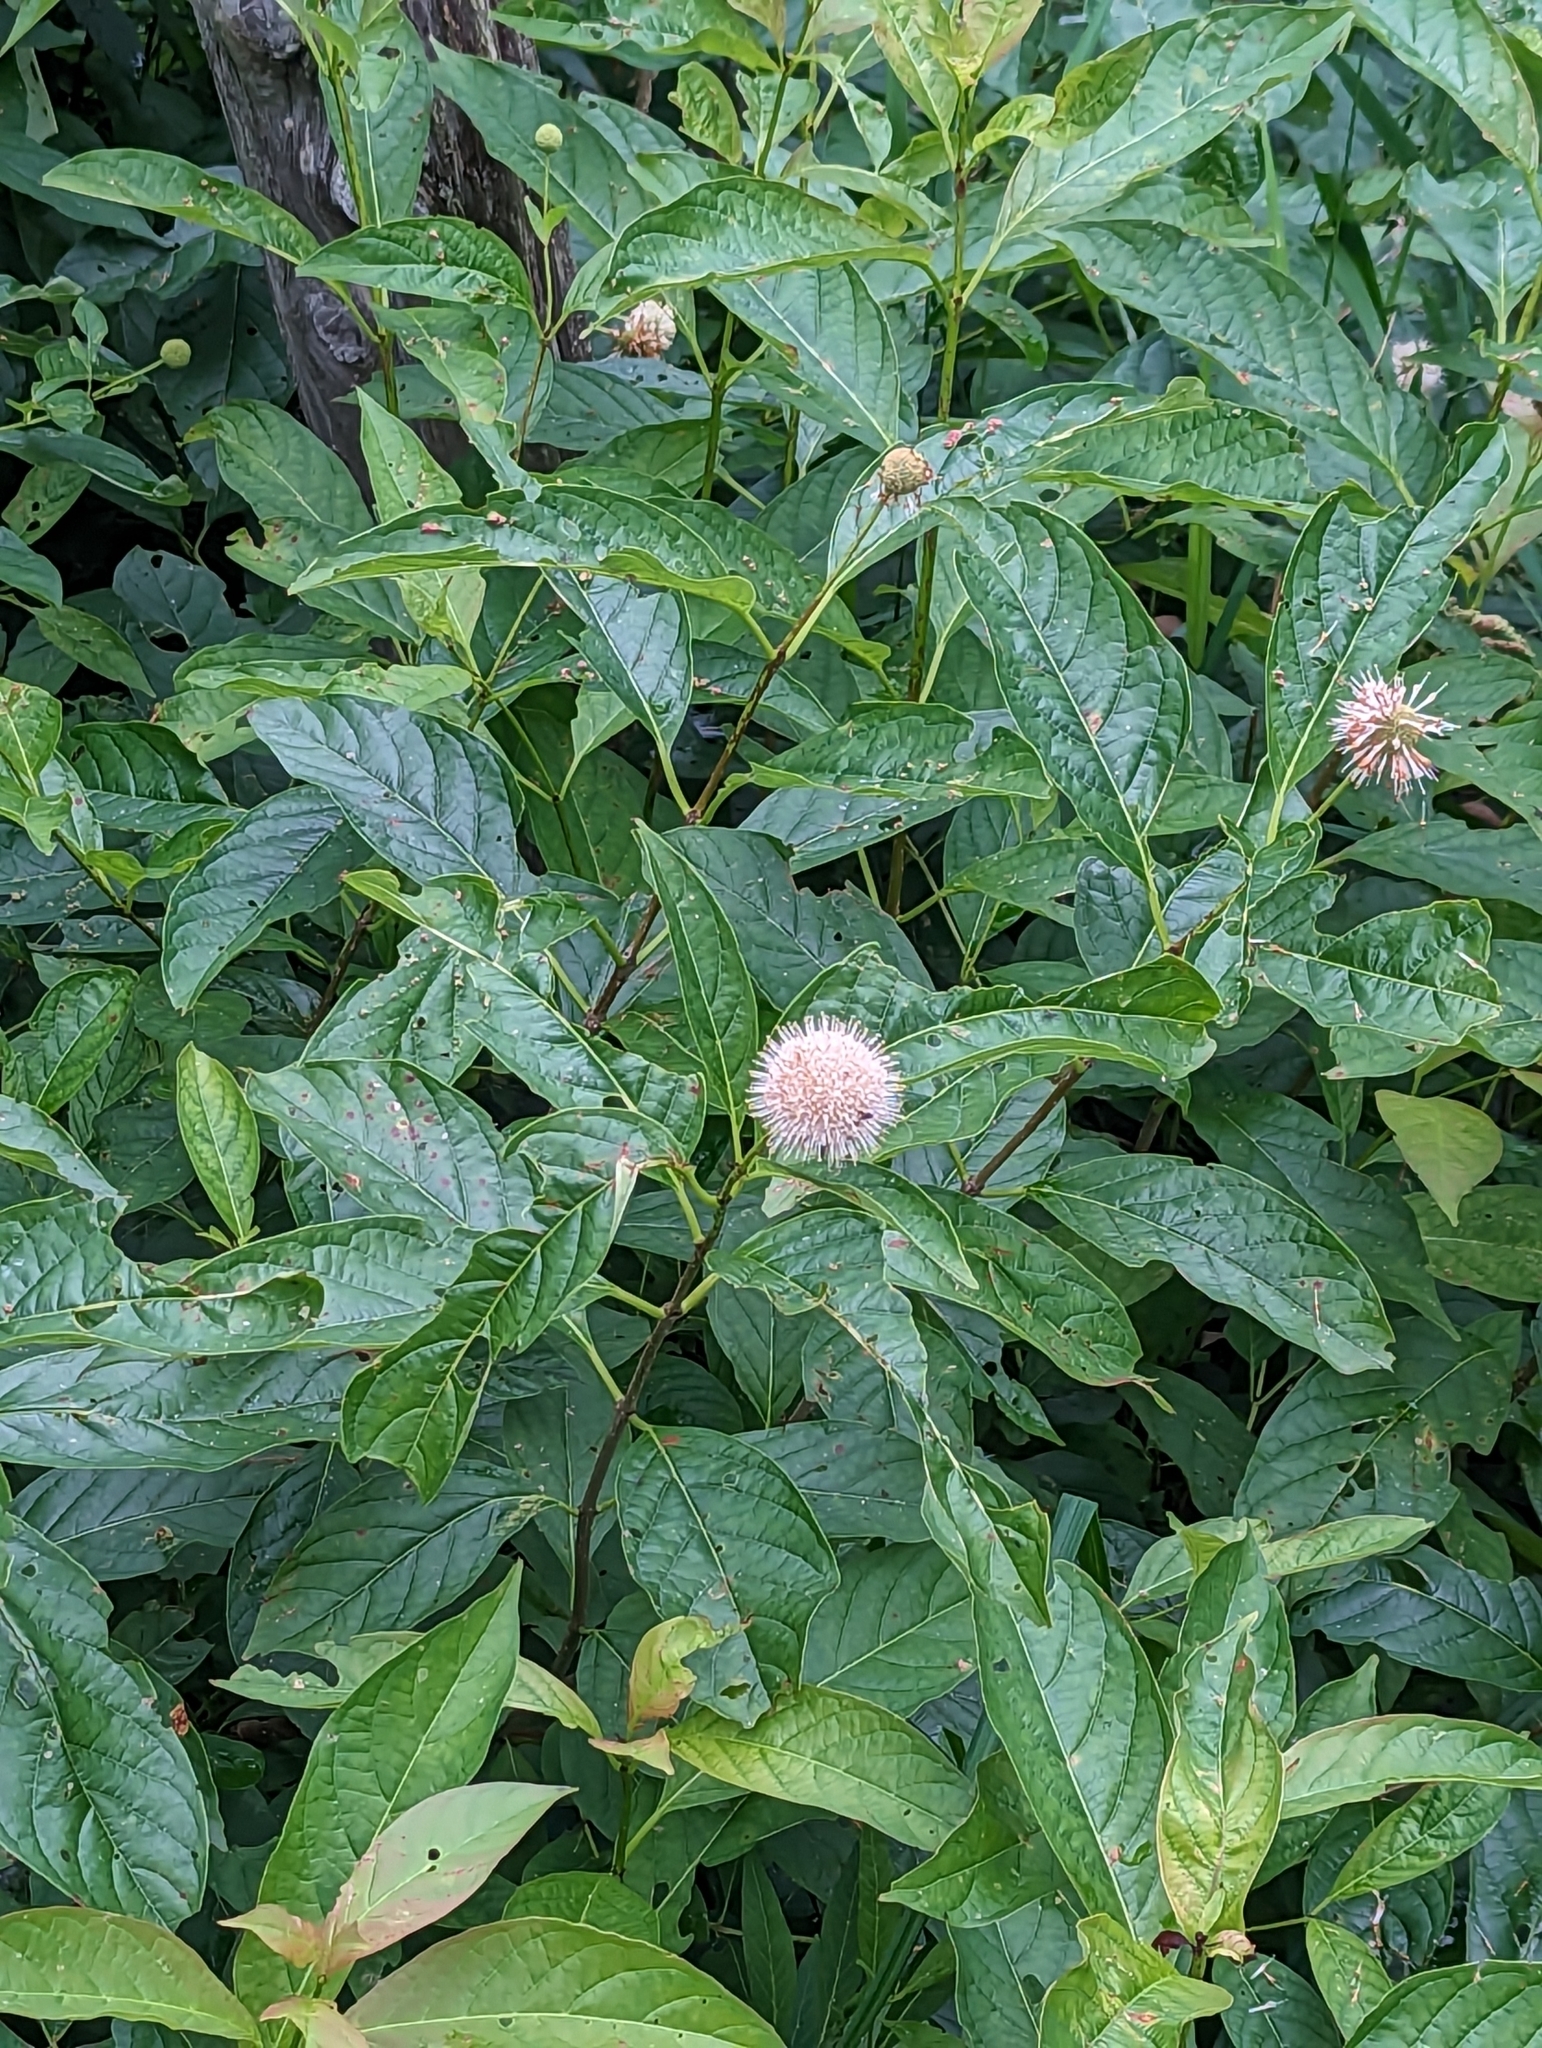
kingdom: Plantae
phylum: Tracheophyta
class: Magnoliopsida
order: Gentianales
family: Rubiaceae
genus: Cephalanthus
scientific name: Cephalanthus occidentalis
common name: Button-willow
